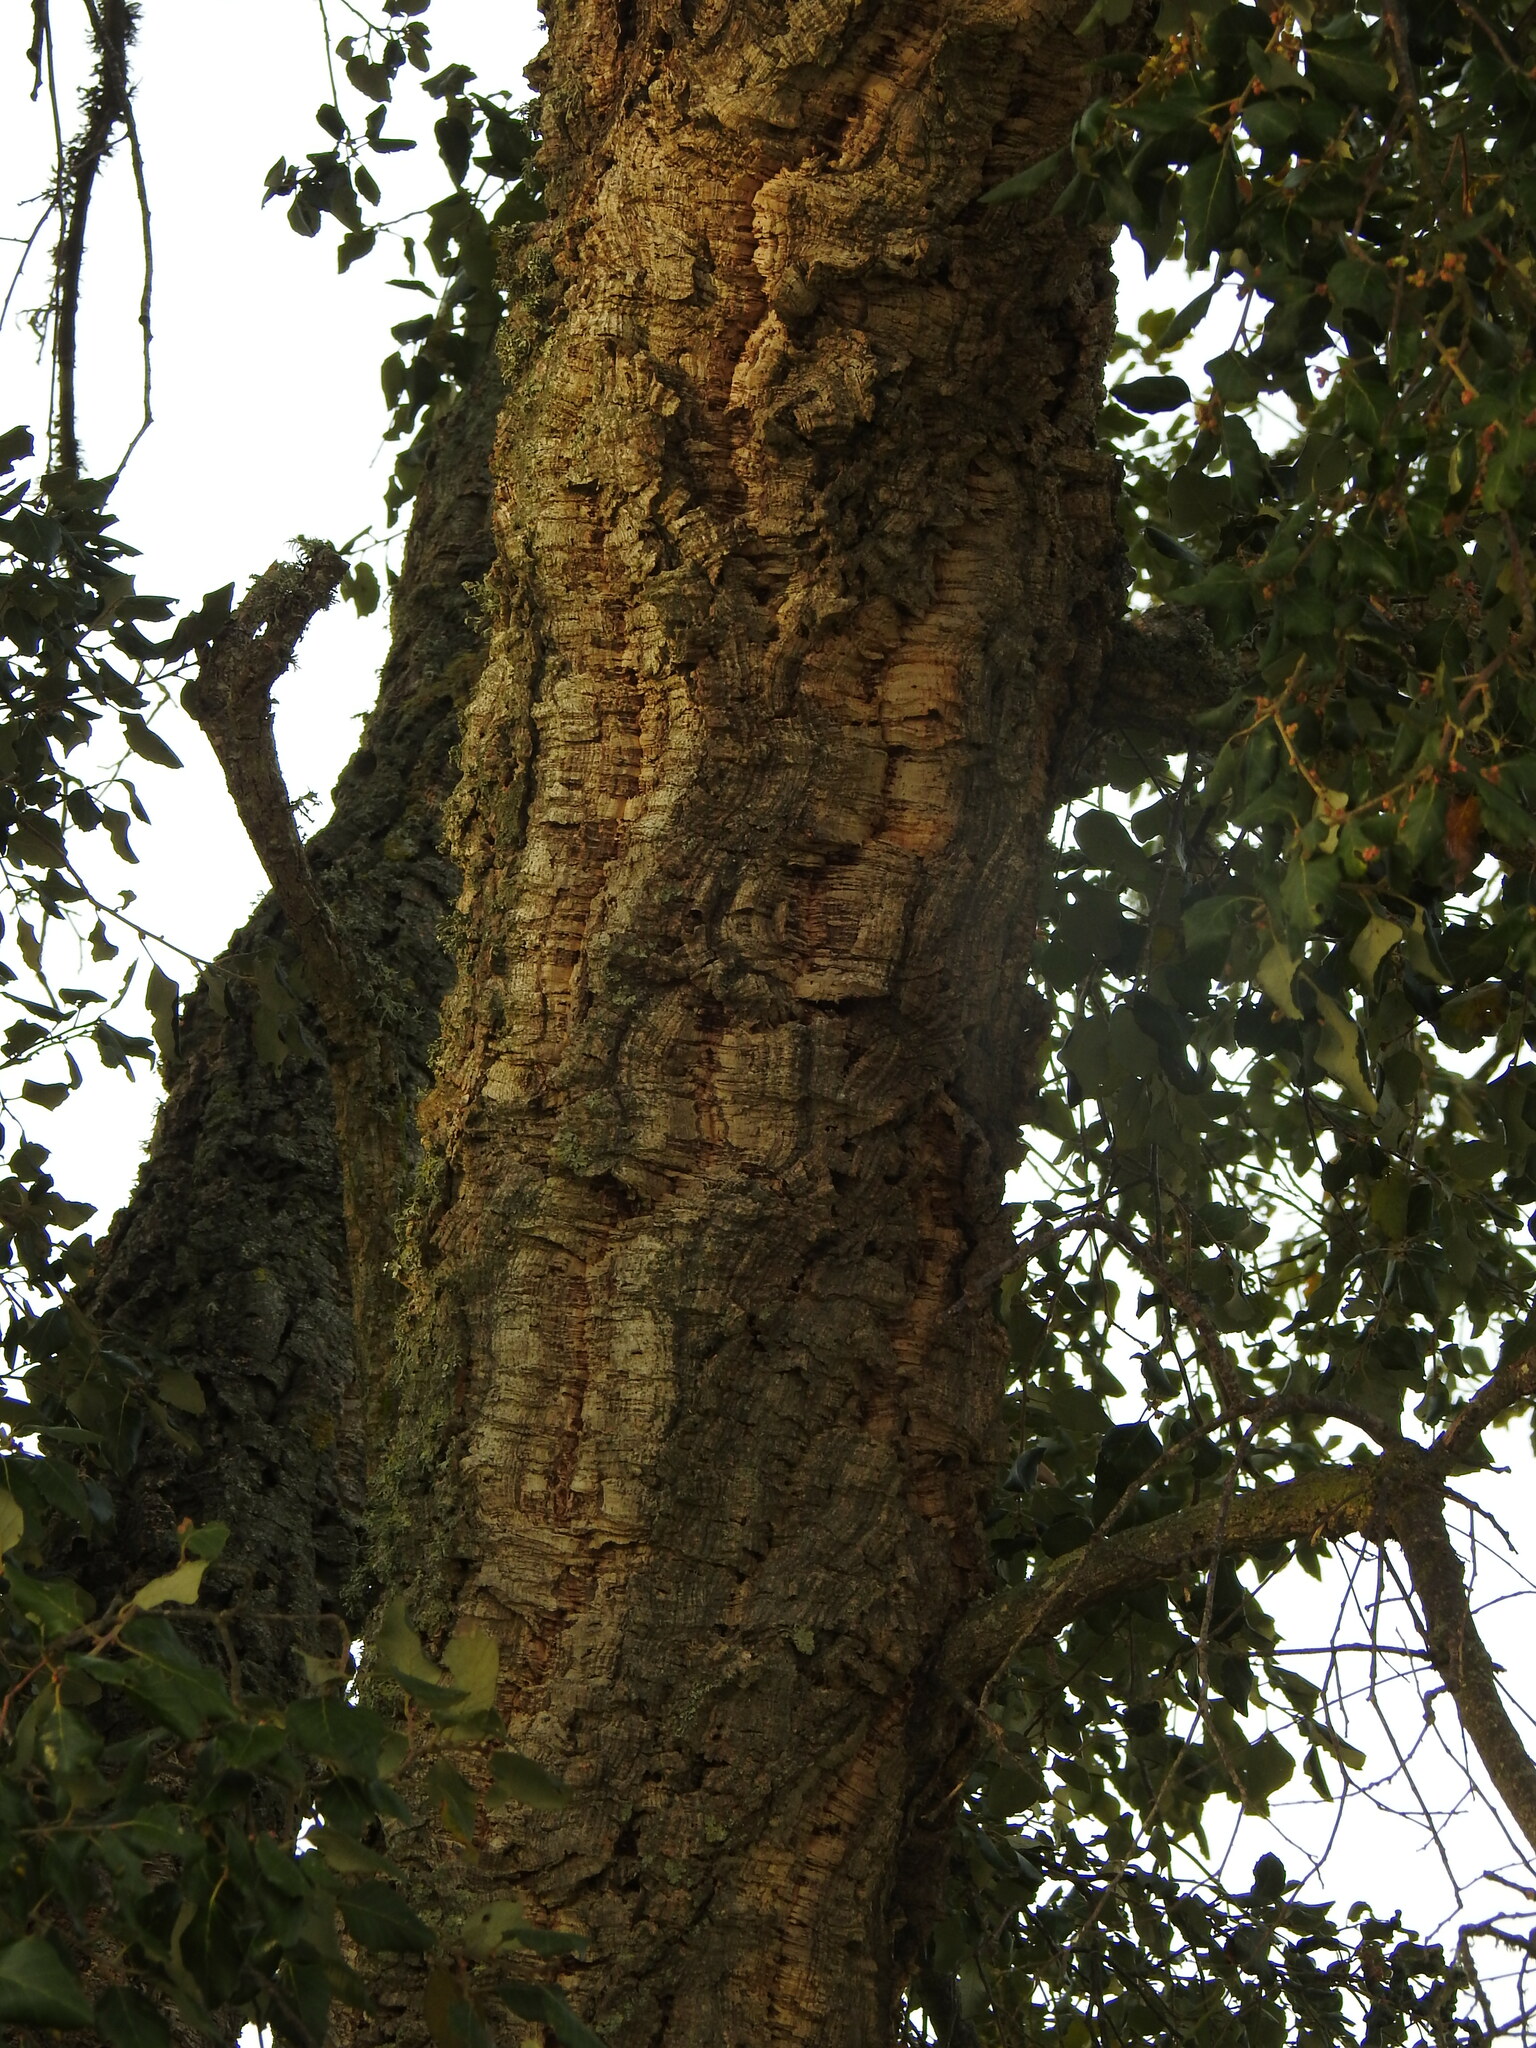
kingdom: Plantae
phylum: Tracheophyta
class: Magnoliopsida
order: Fagales
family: Fagaceae
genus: Quercus
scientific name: Quercus suber
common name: Cork oak
